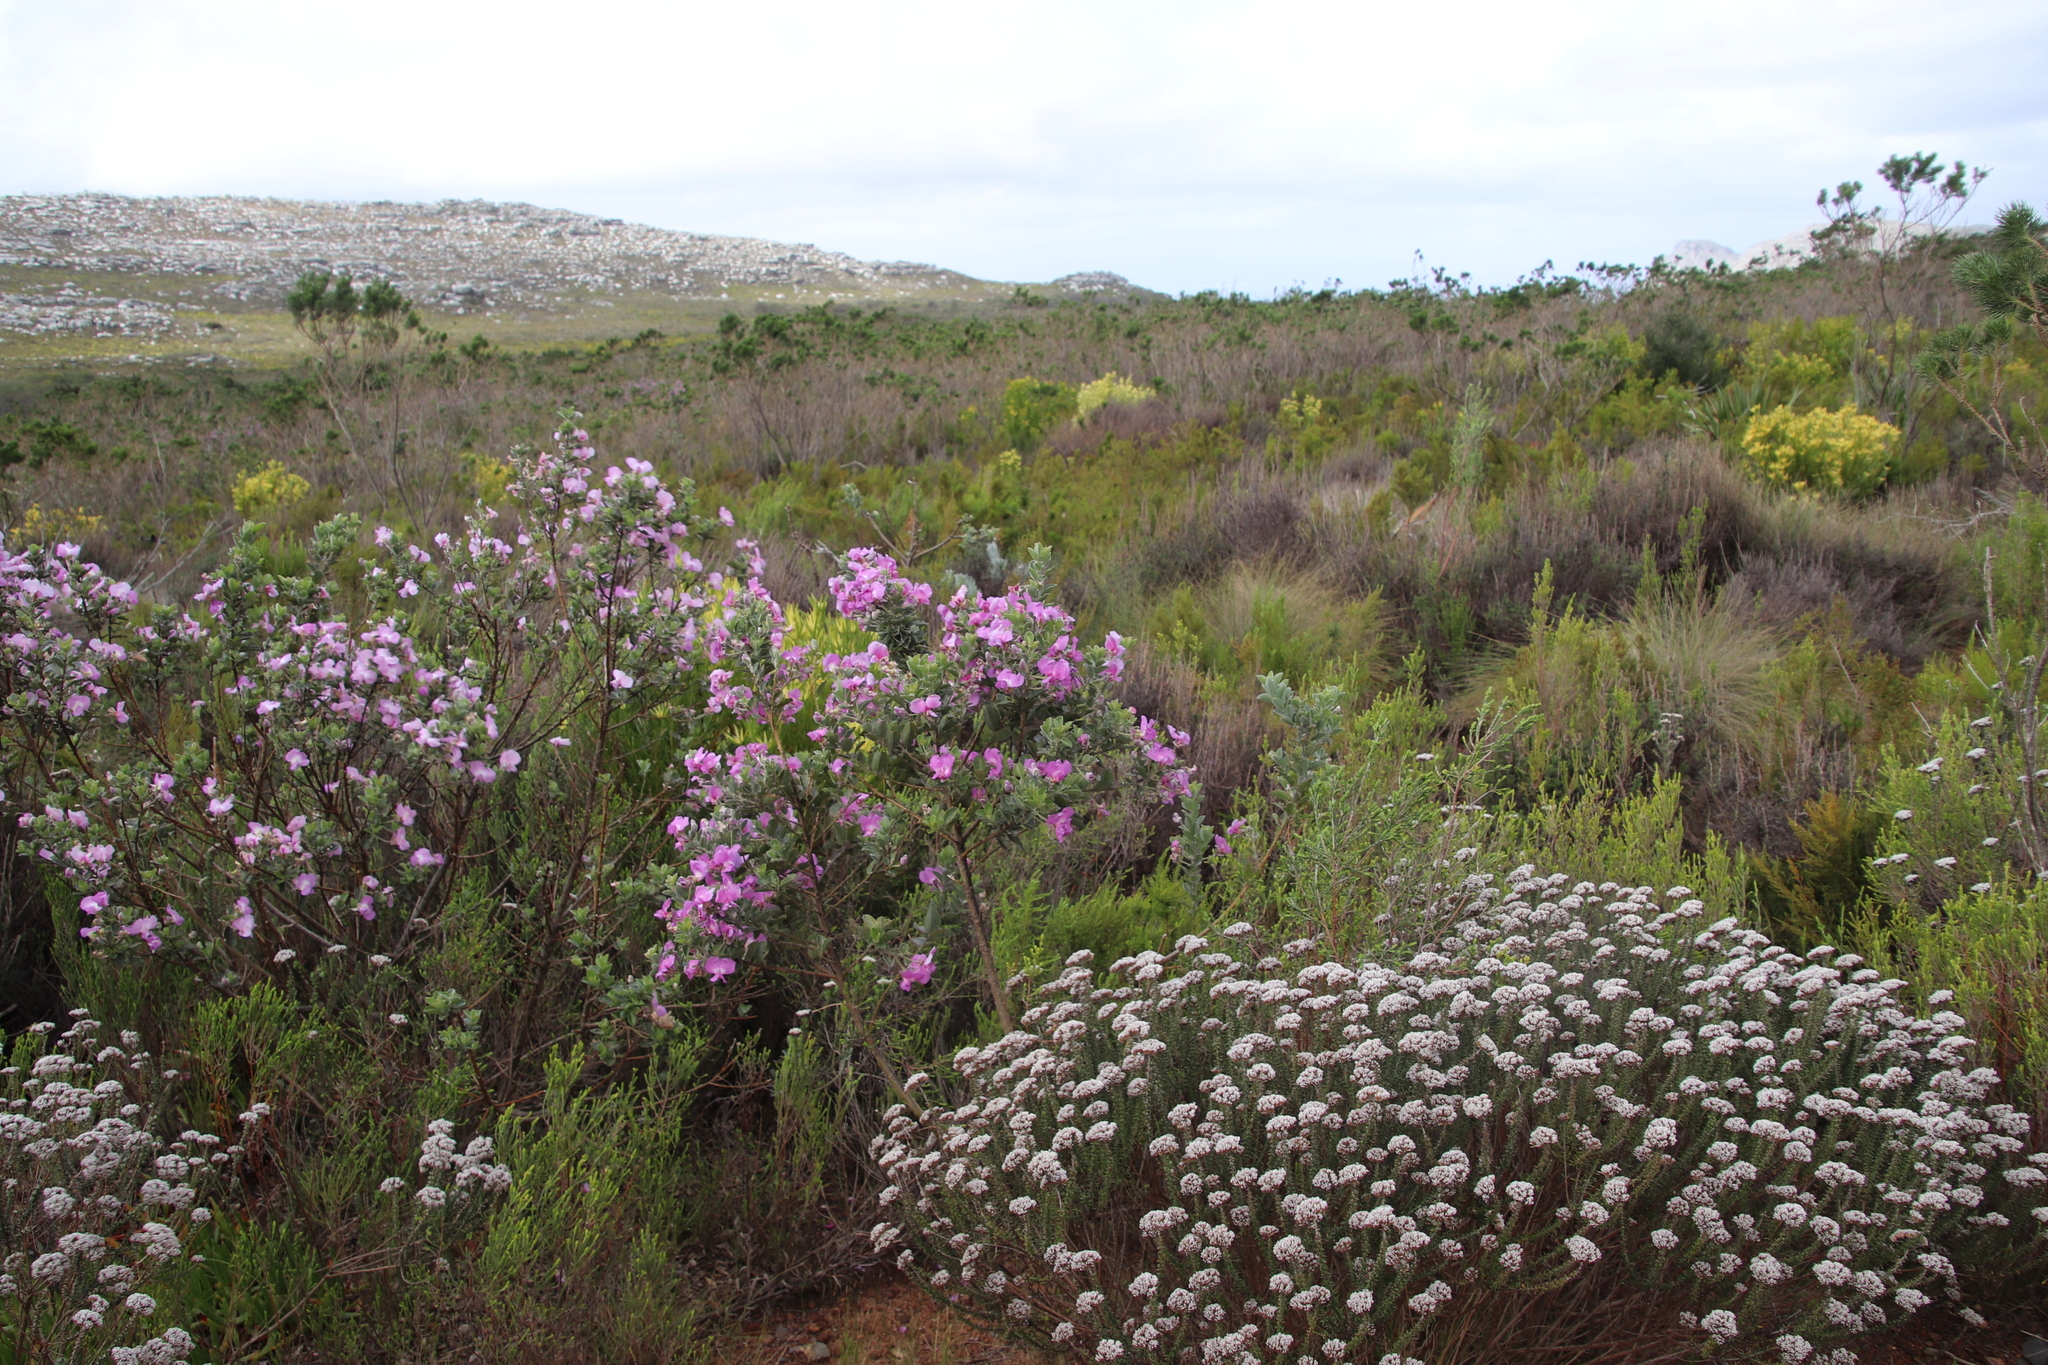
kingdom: Plantae
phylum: Tracheophyta
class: Magnoliopsida
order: Fabales
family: Fabaceae
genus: Podalyria
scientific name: Podalyria calyptrata
